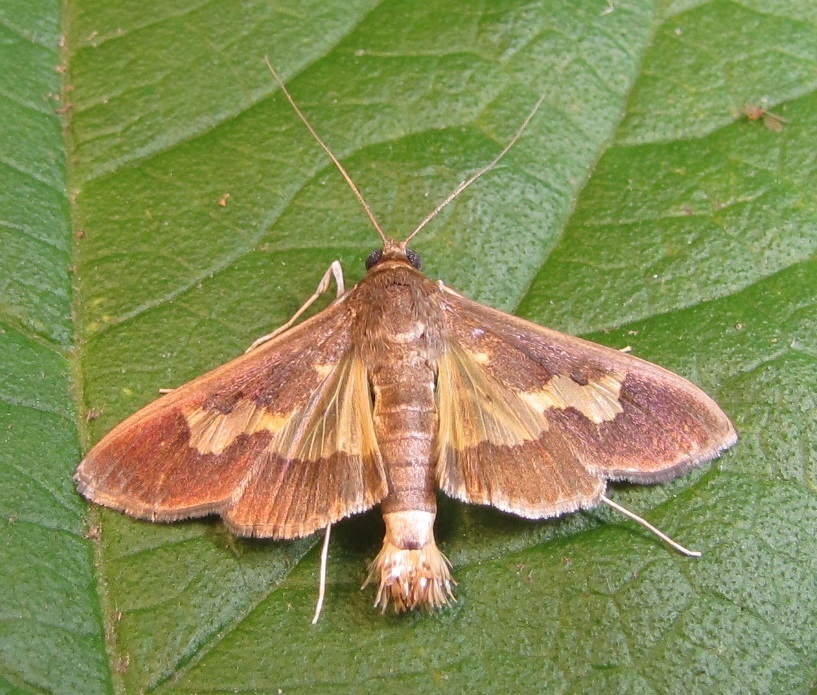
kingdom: Animalia
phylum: Arthropoda
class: Insecta
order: Lepidoptera
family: Crambidae
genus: Cryptographis
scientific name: Cryptographis nitidalis
